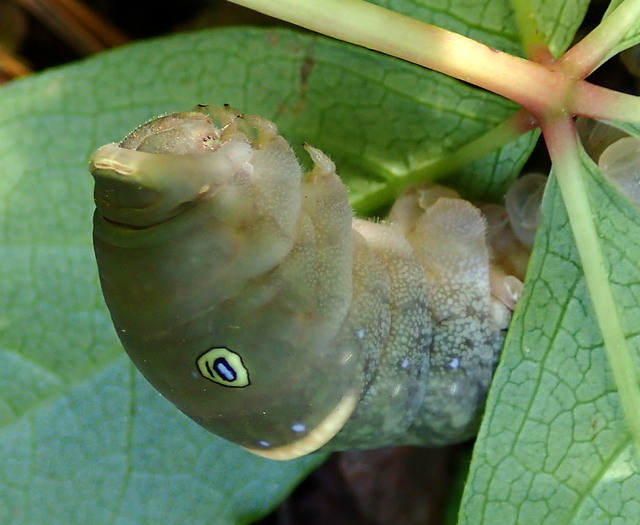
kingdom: Animalia
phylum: Arthropoda
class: Insecta
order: Lepidoptera
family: Papilionidae
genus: Papilio
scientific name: Papilio glaucus
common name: Tiger swallowtail
